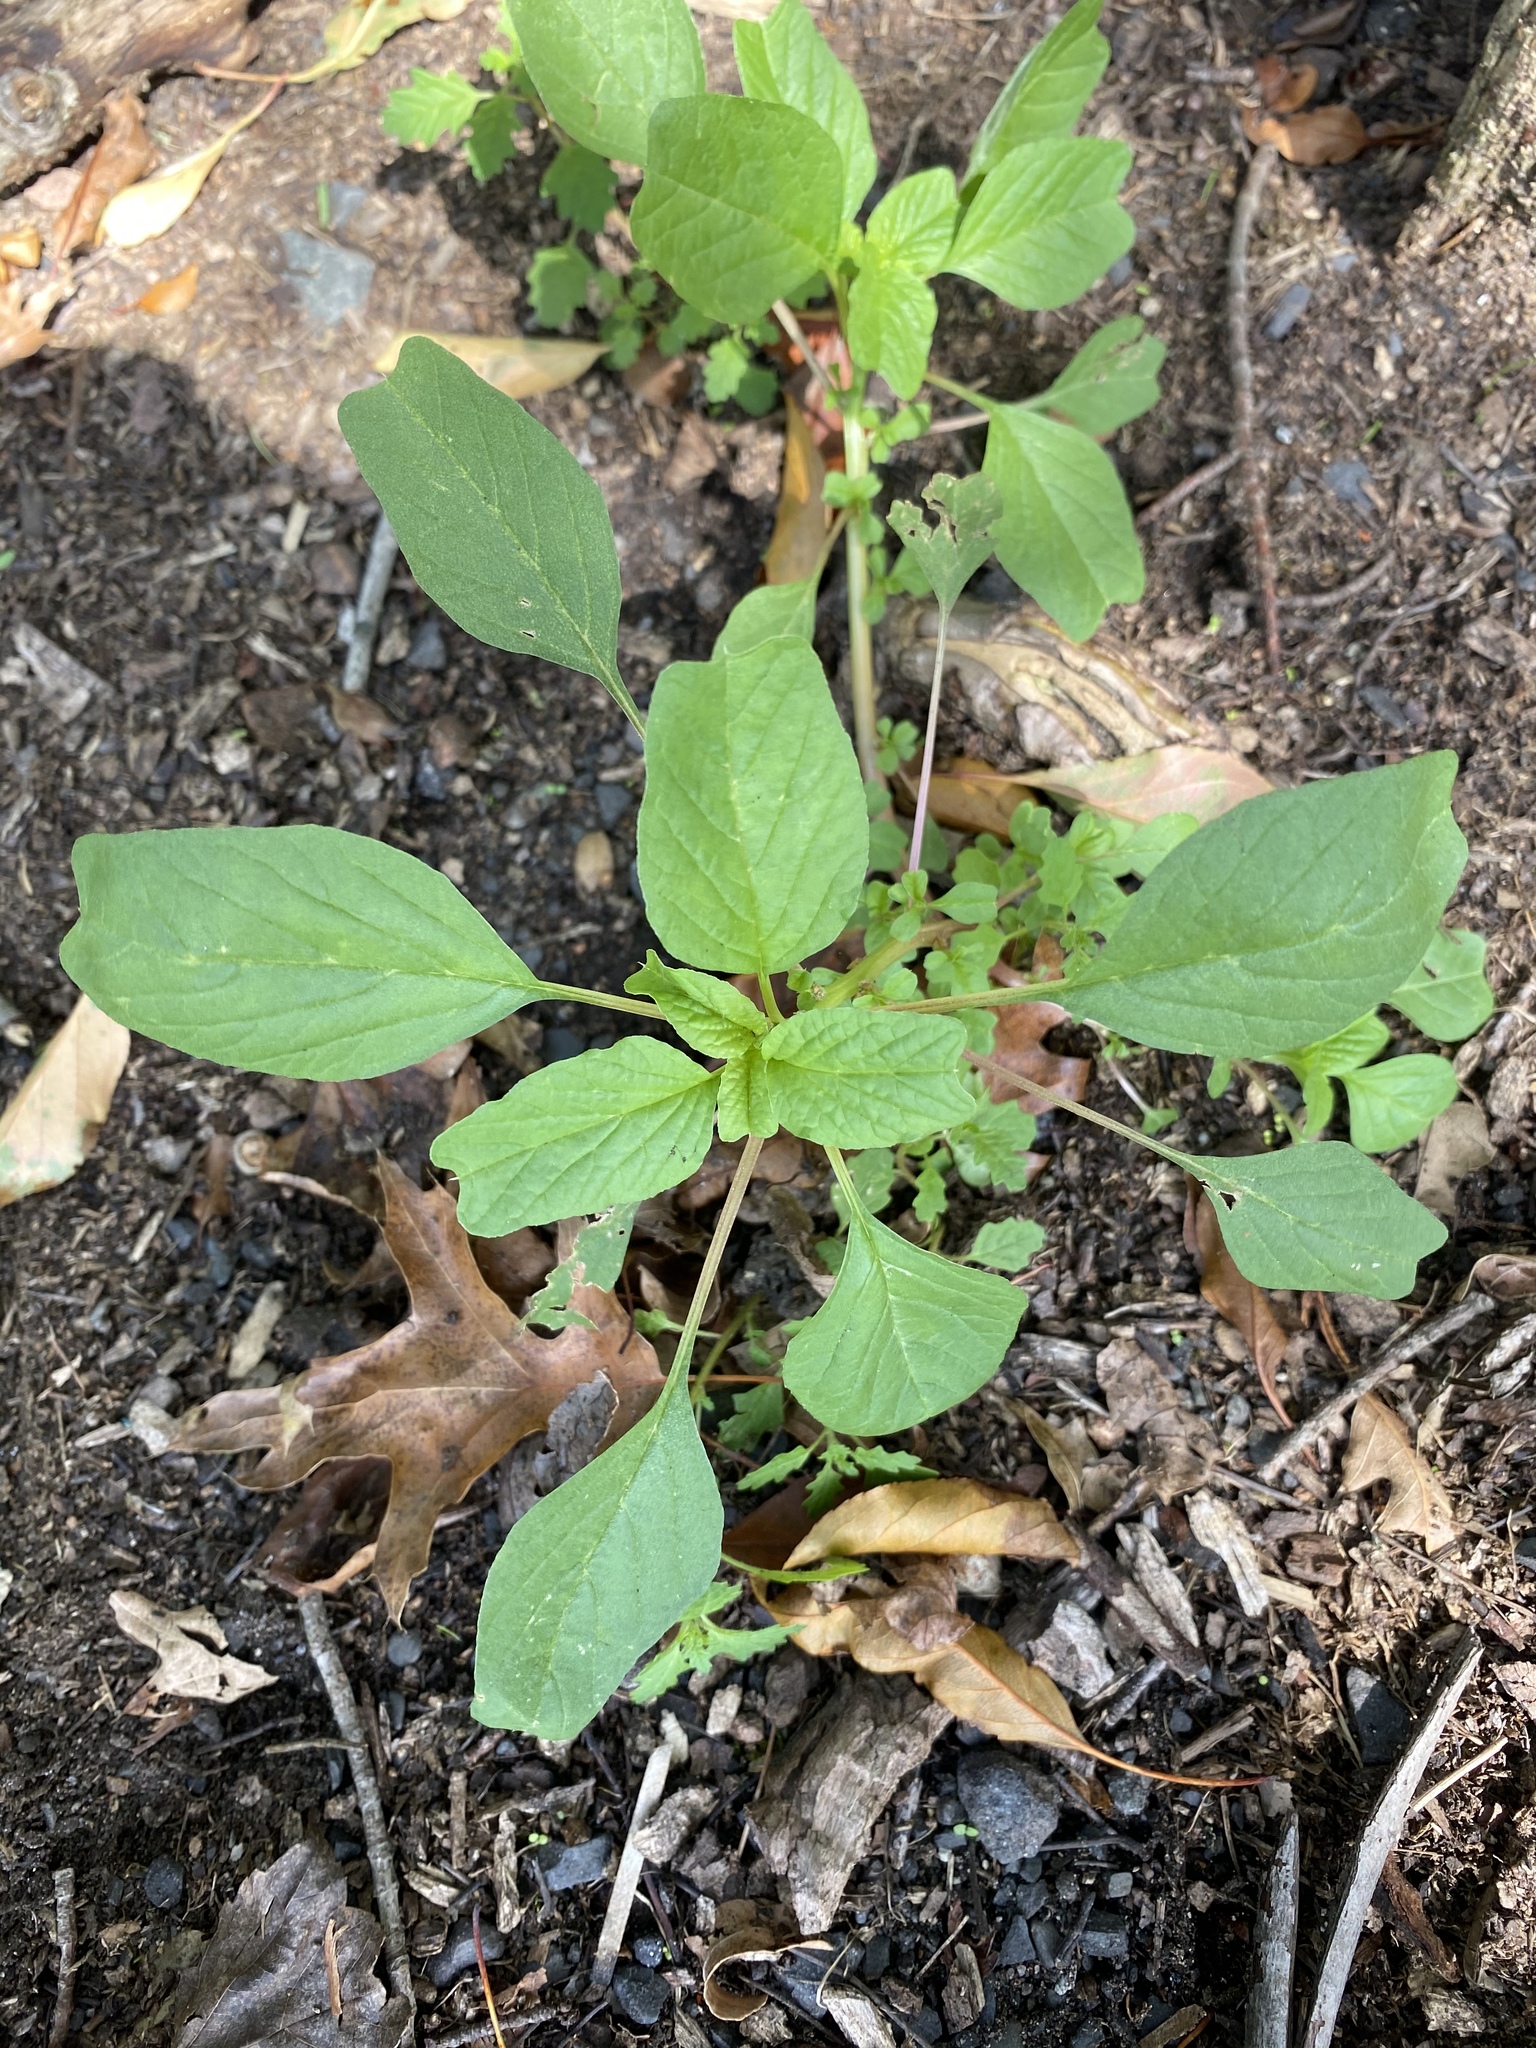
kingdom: Plantae
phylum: Tracheophyta
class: Magnoliopsida
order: Caryophyllales
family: Amaranthaceae
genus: Amaranthus
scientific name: Amaranthus blitum
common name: Purple amaranth
